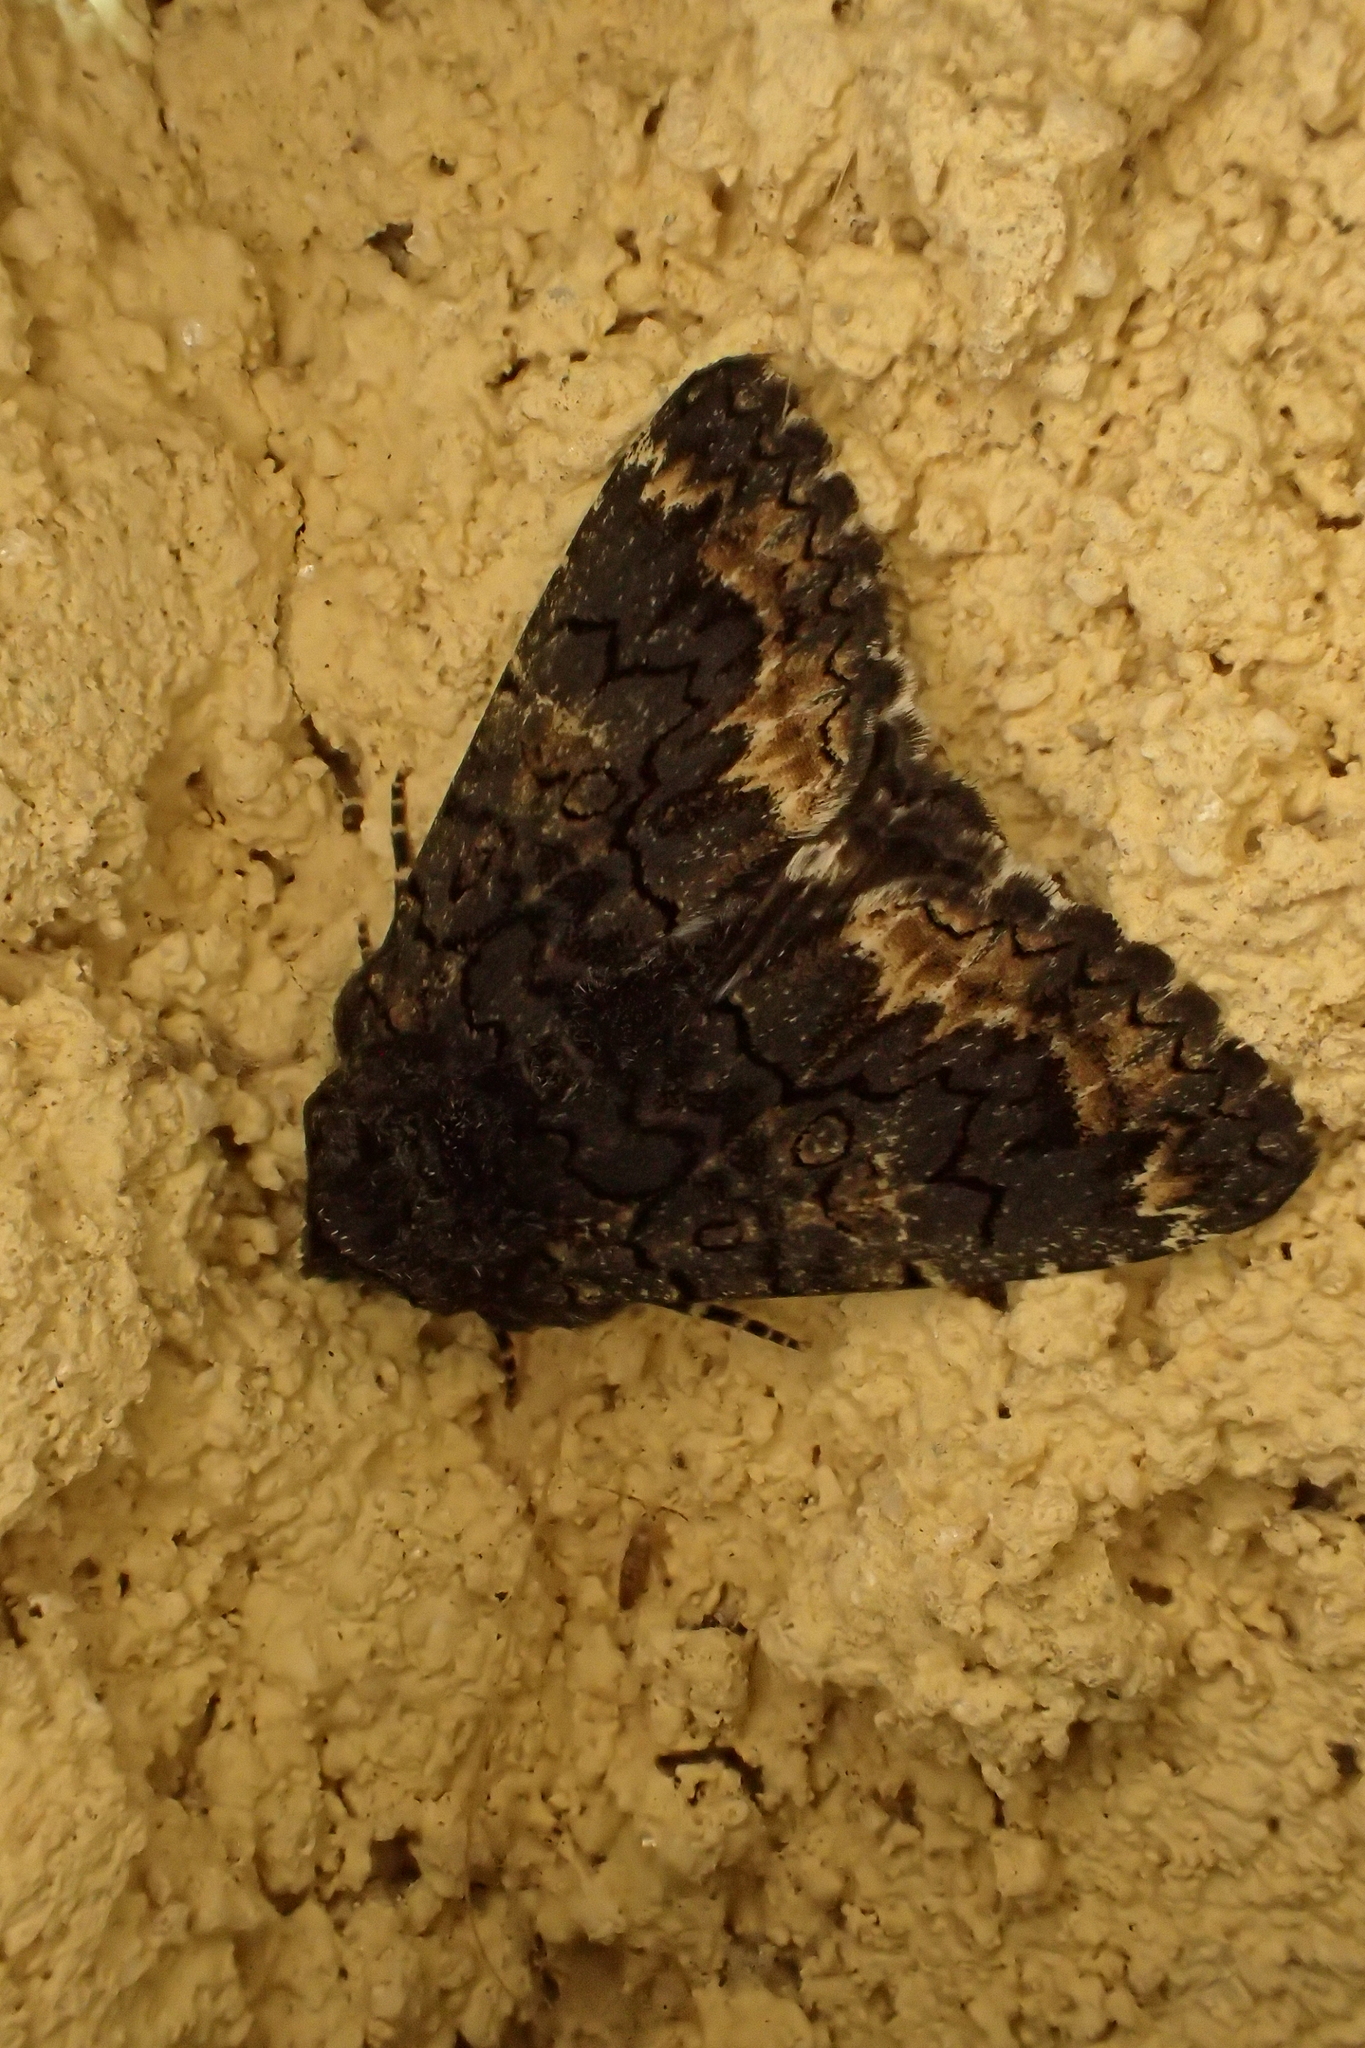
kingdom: Animalia
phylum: Arthropoda
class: Insecta
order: Lepidoptera
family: Erebidae
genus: Catephia
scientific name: Catephia alchymista
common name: Alchymist
